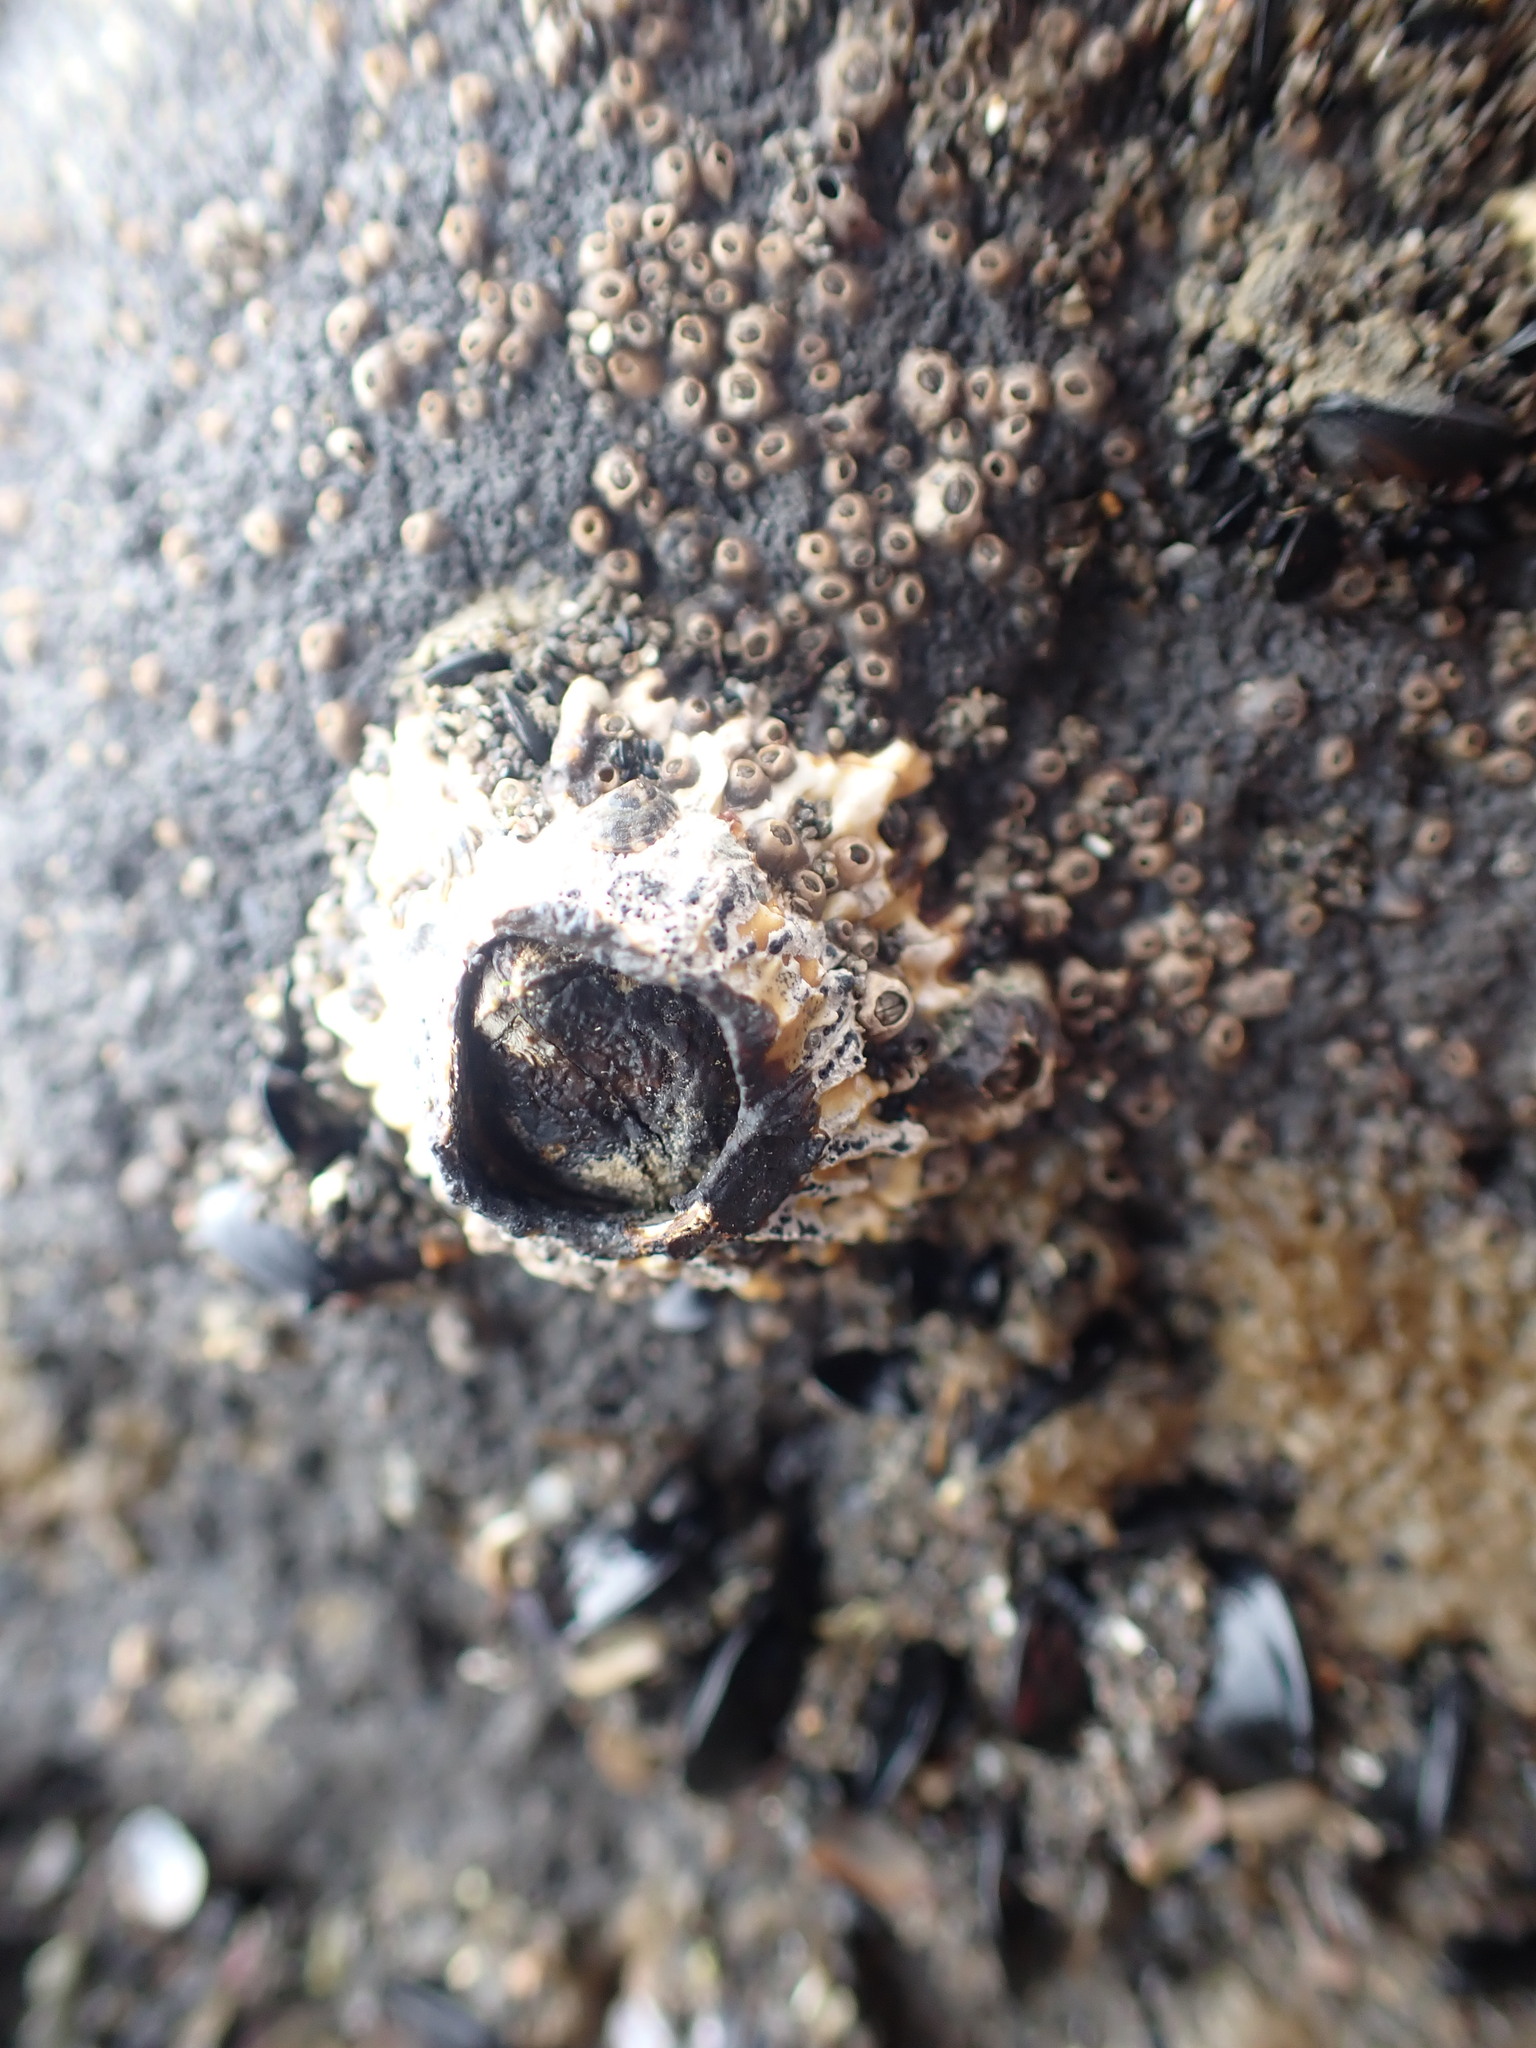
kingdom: Animalia
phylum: Arthropoda
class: Maxillopoda
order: Sessilia
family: Tetraclitidae
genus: Epopella
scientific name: Epopella plicata
